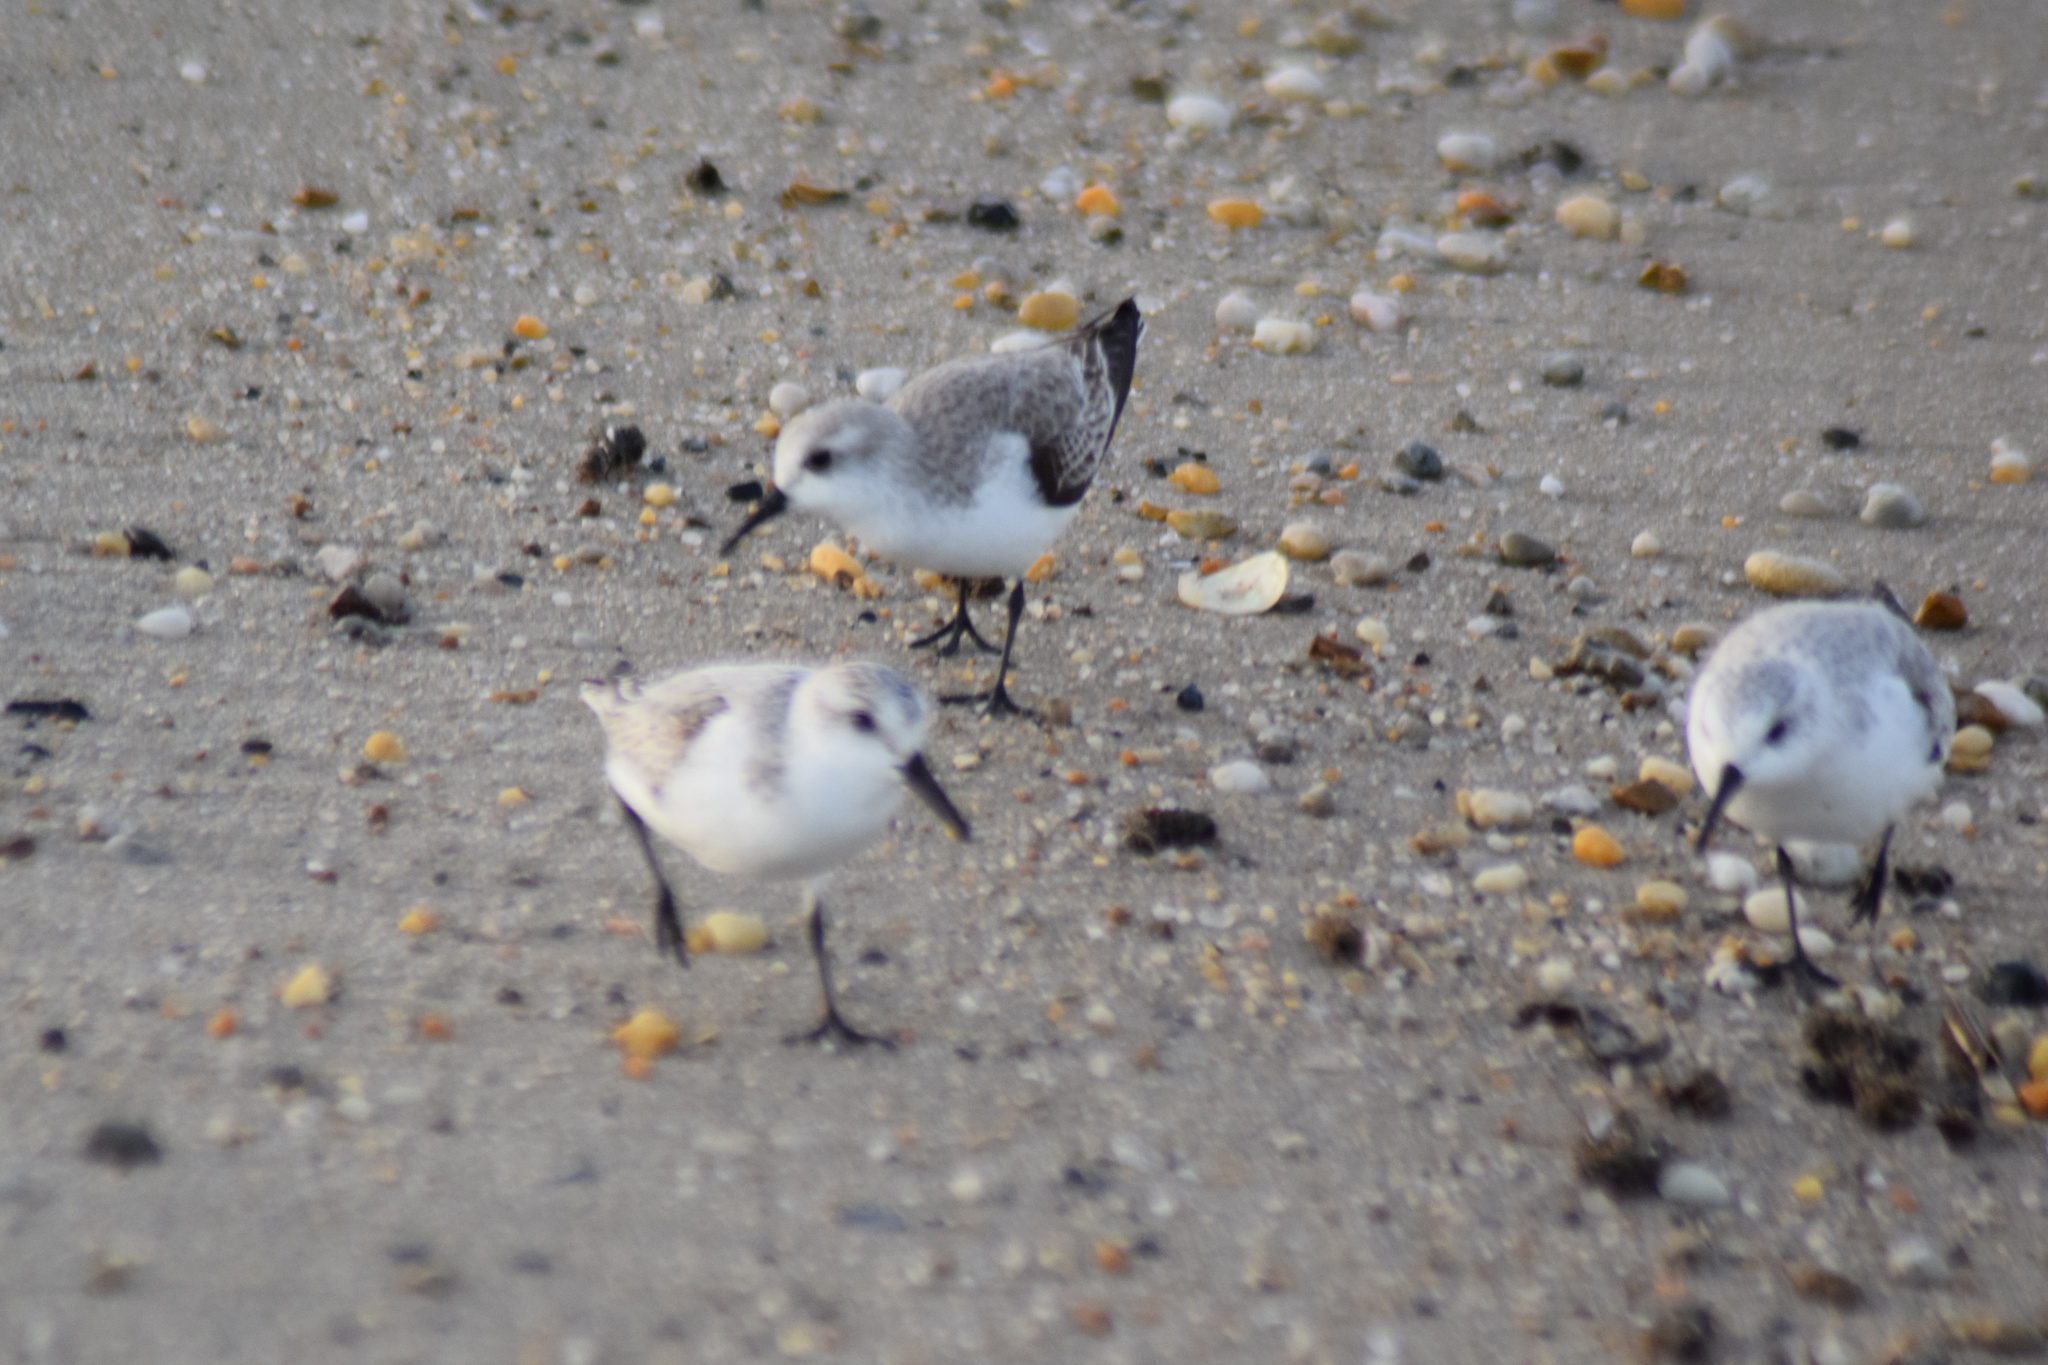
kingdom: Animalia
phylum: Chordata
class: Aves
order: Charadriiformes
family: Scolopacidae
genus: Calidris
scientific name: Calidris alba
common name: Sanderling
